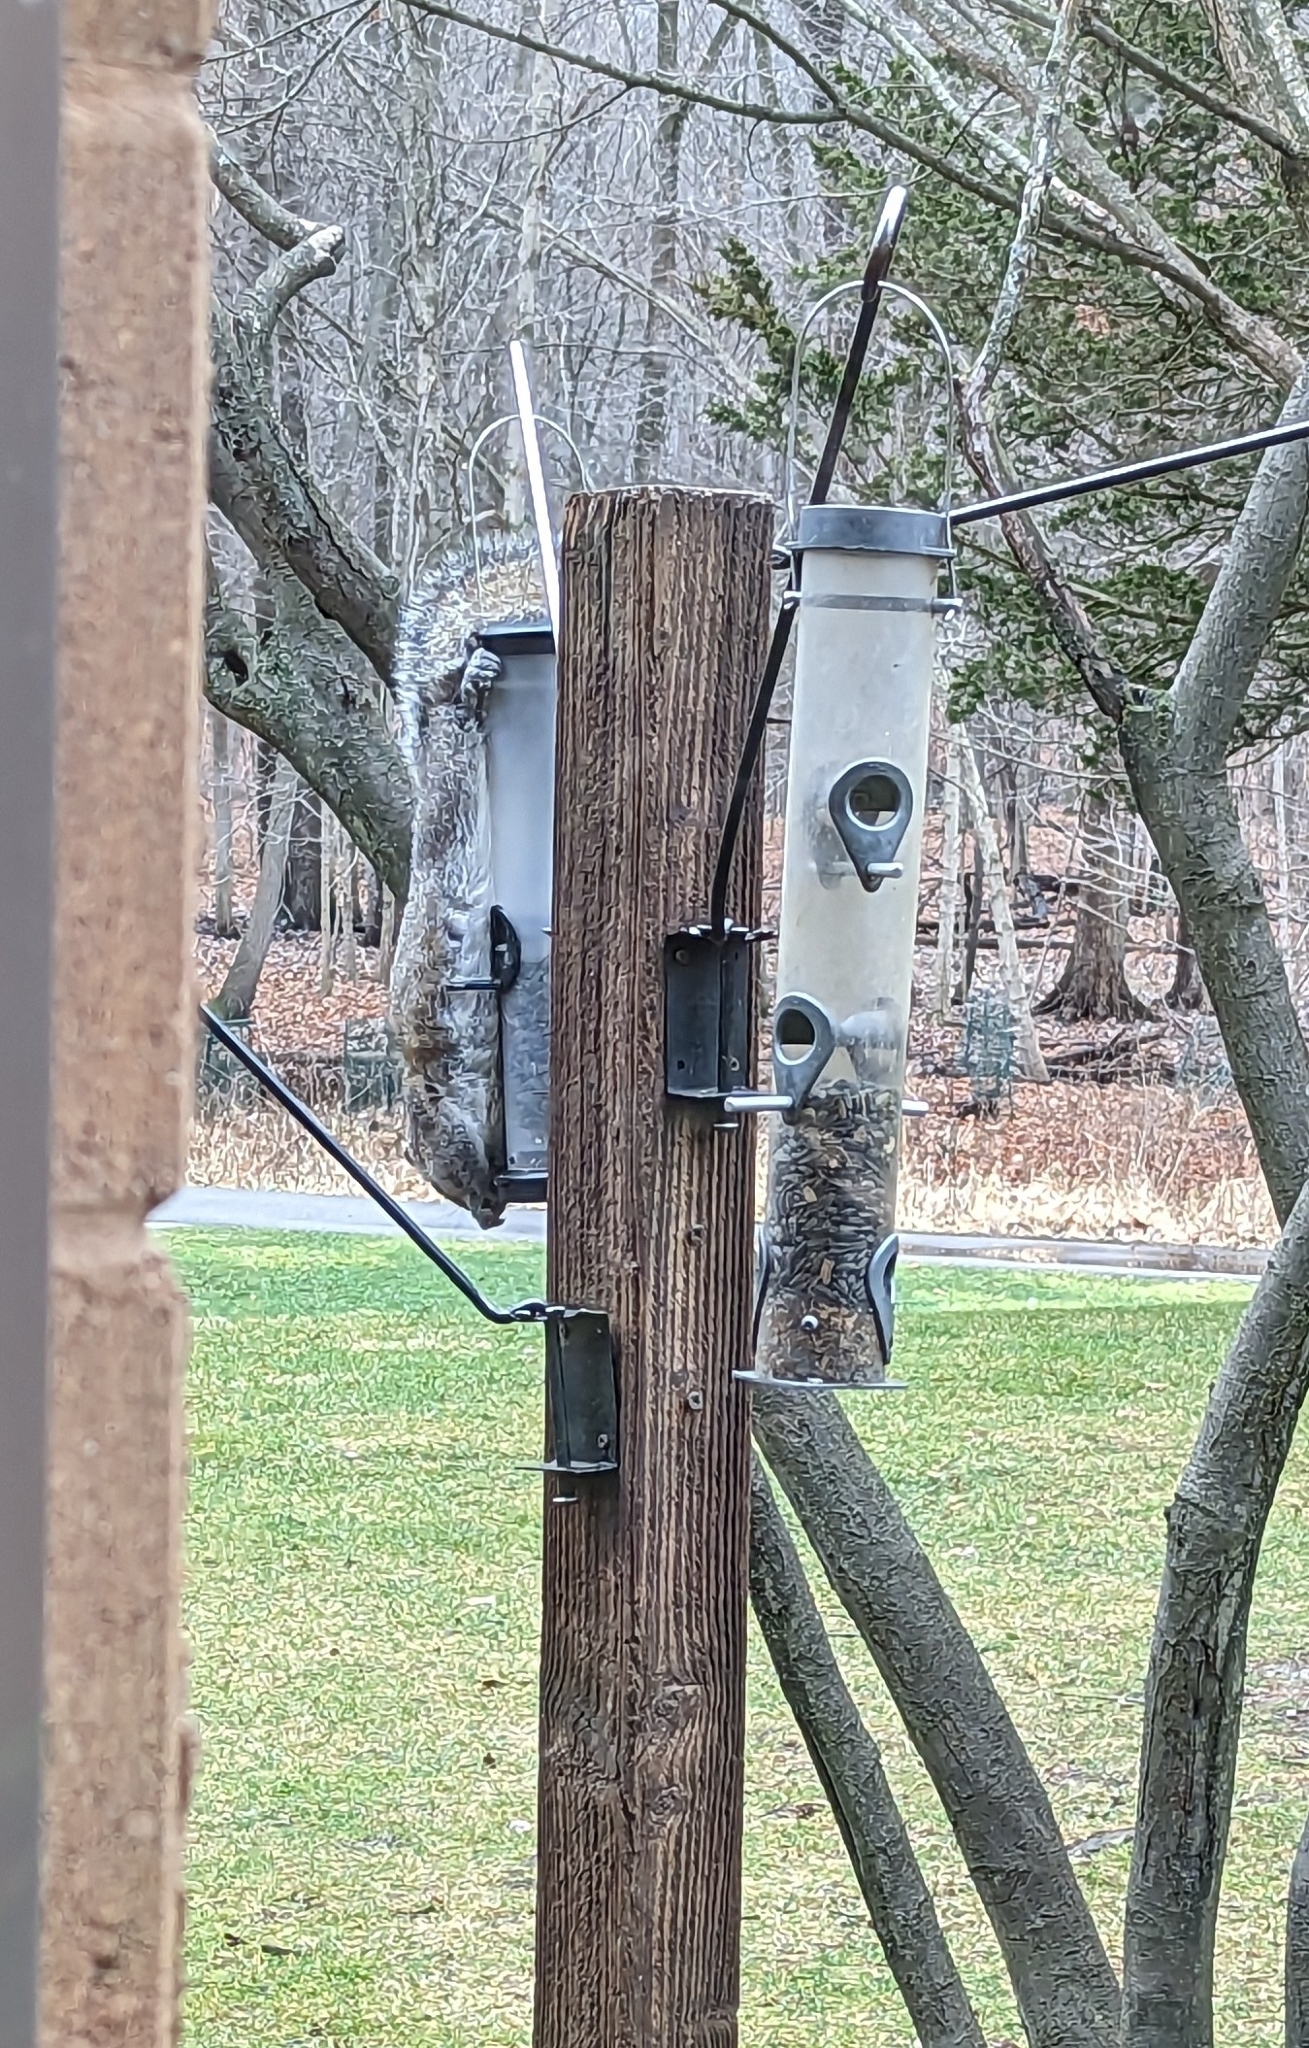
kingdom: Animalia
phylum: Chordata
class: Mammalia
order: Rodentia
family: Sciuridae
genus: Sciurus
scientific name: Sciurus carolinensis
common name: Eastern gray squirrel
